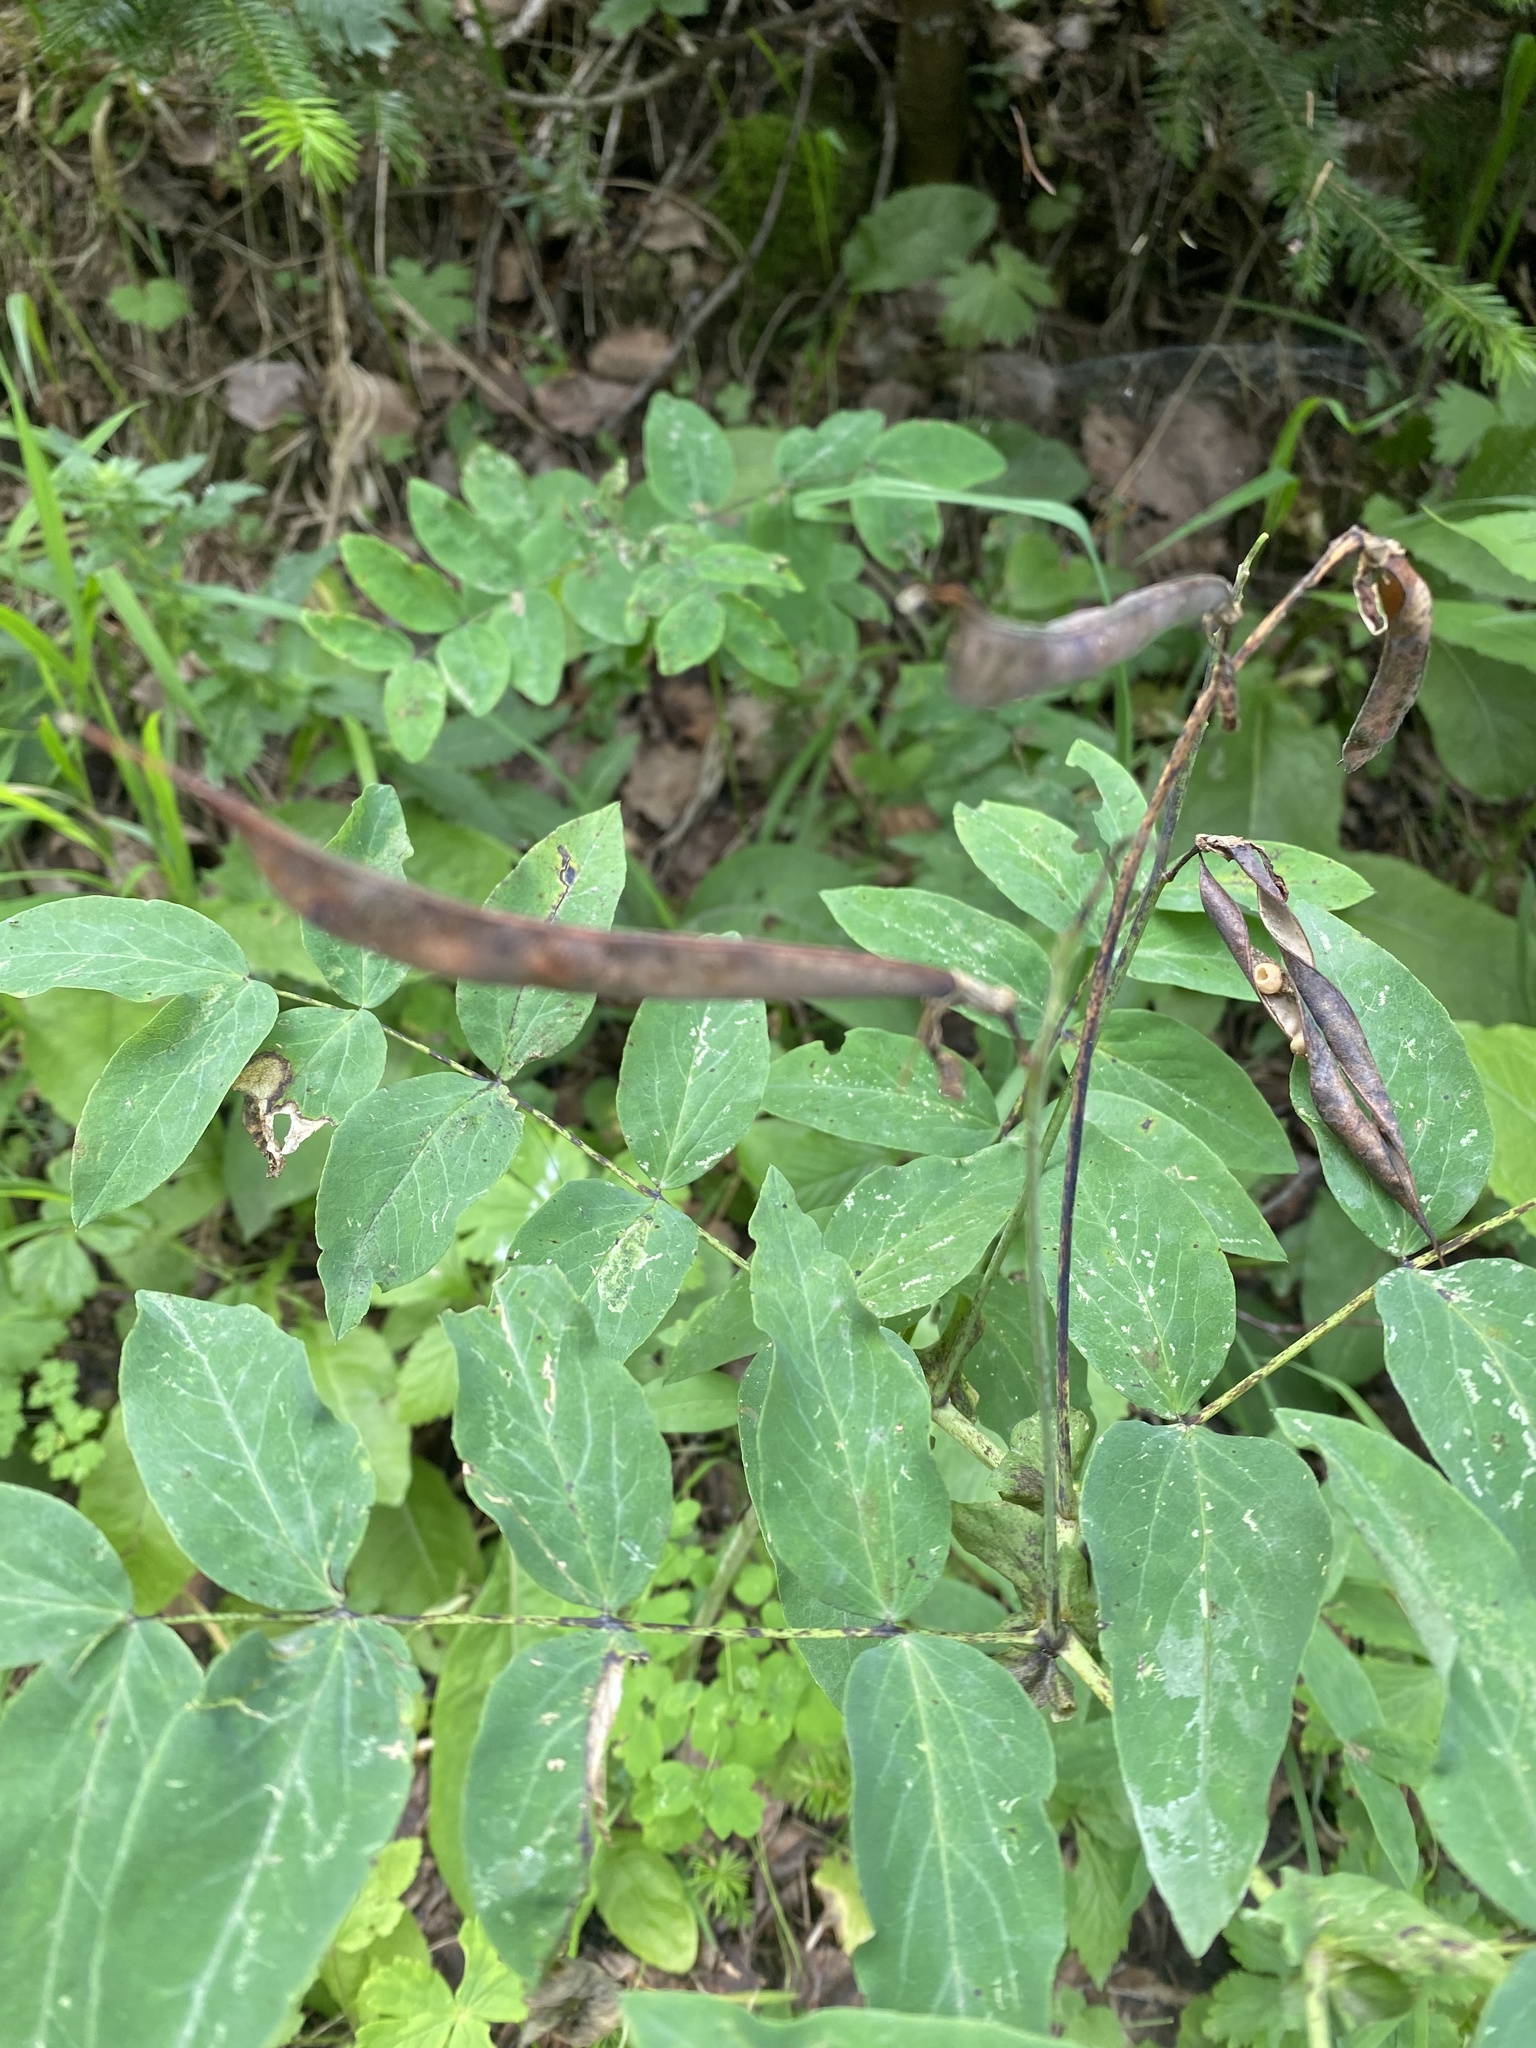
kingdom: Plantae
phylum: Tracheophyta
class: Magnoliopsida
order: Fabales
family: Fabaceae
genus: Lathyrus
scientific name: Lathyrus gmelinii
